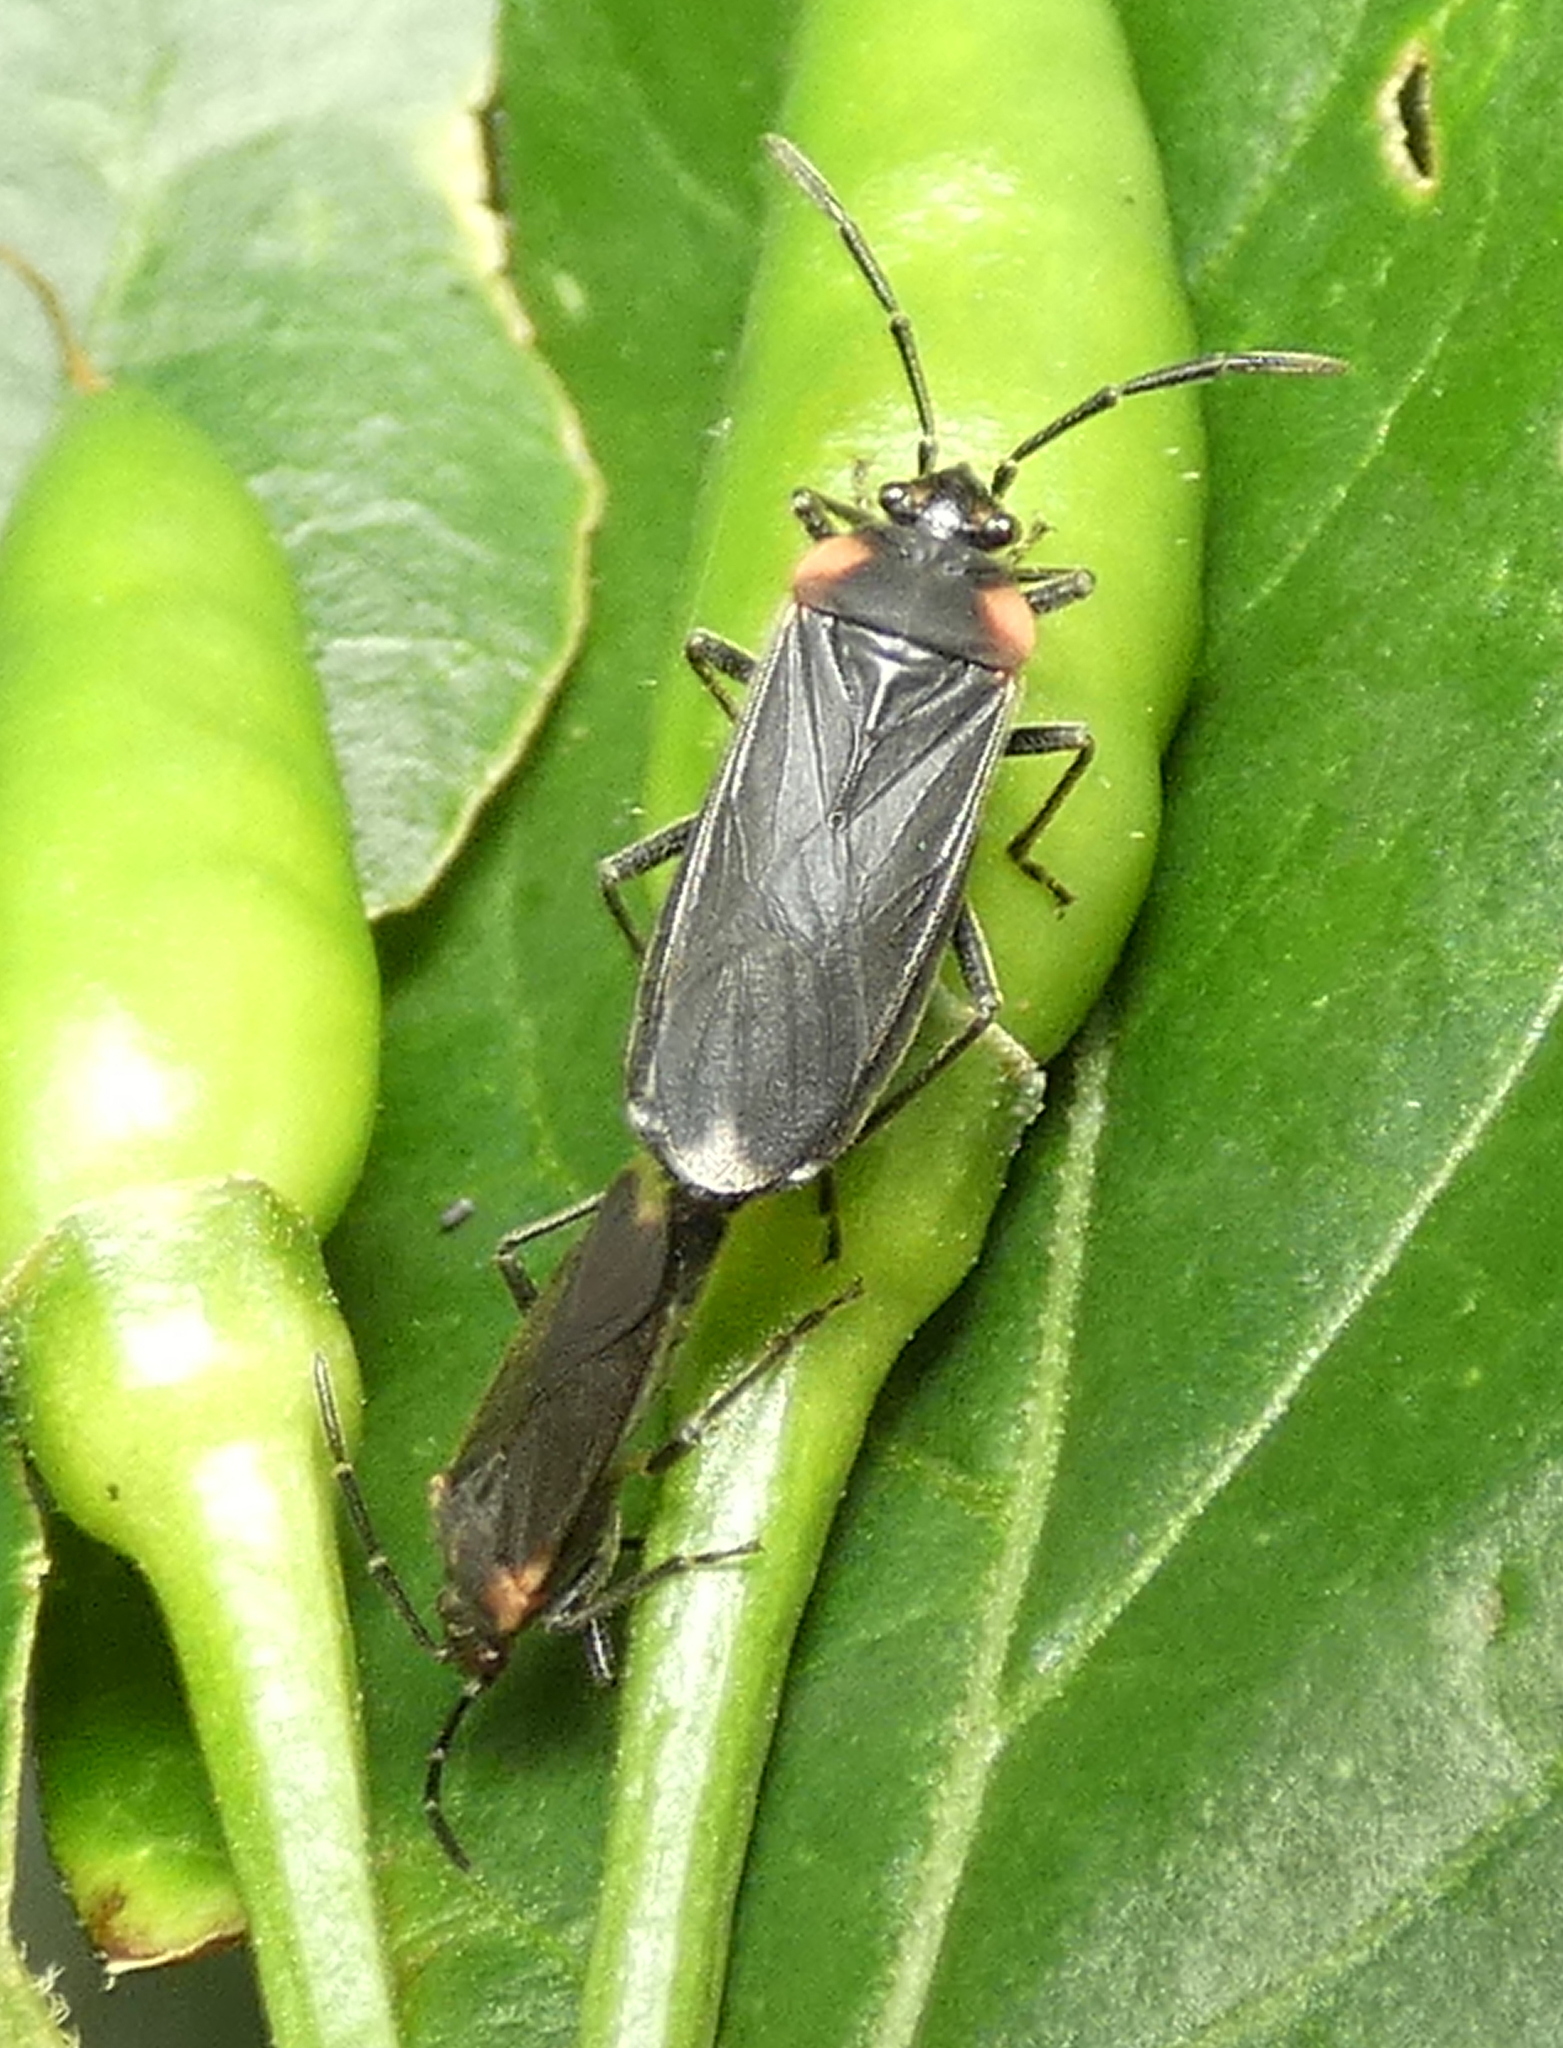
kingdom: Animalia
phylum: Arthropoda
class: Insecta
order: Hemiptera
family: Lygaeidae
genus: Acroleucus
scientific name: Acroleucus coxalis
